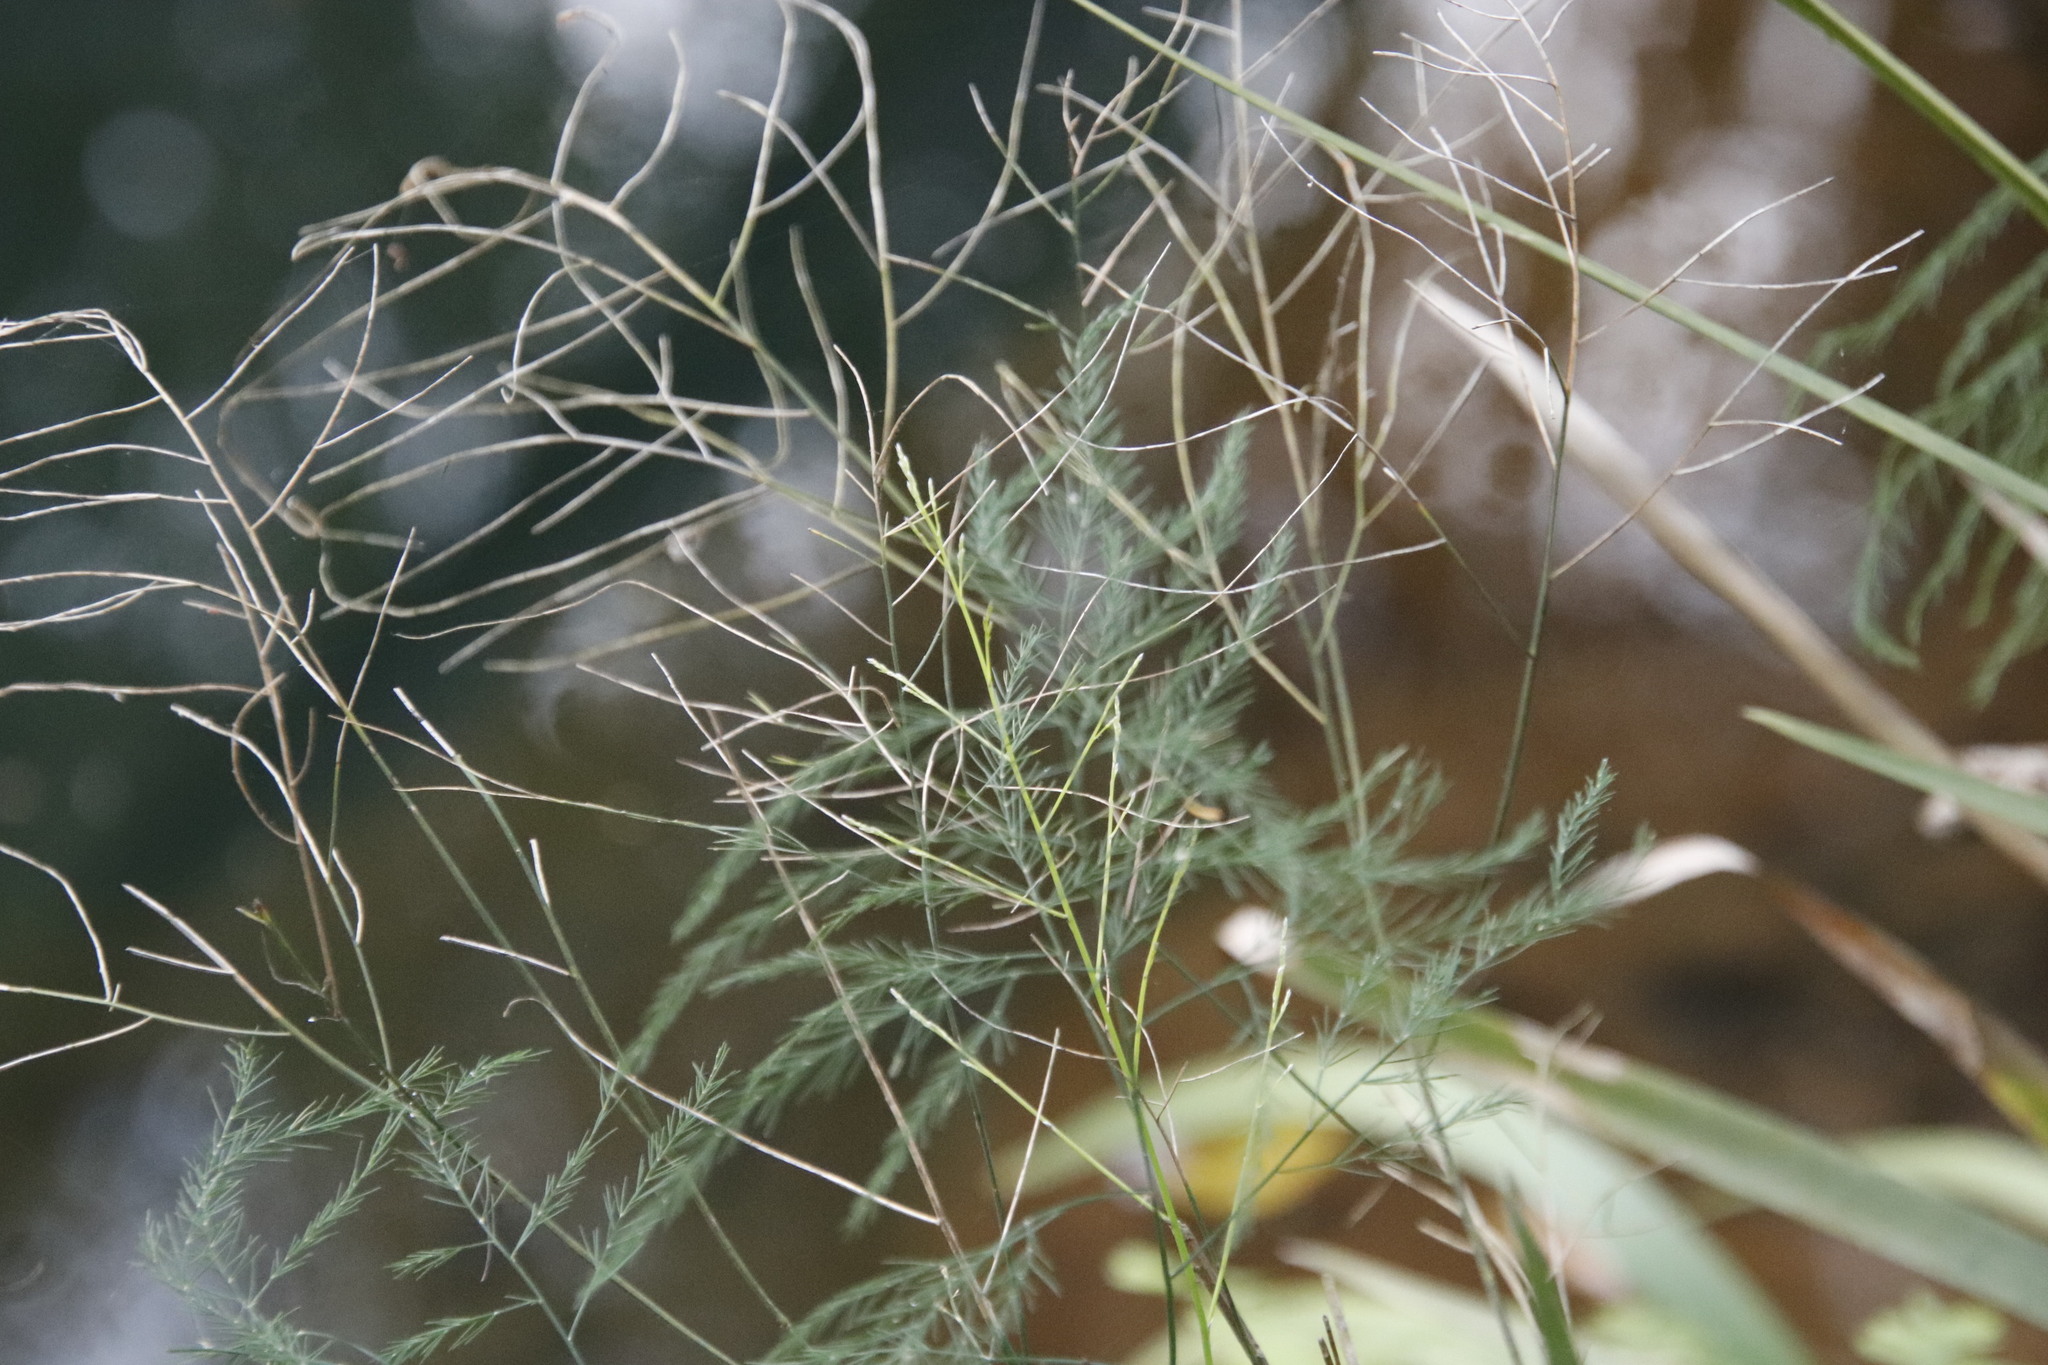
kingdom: Plantae
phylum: Tracheophyta
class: Liliopsida
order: Asparagales
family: Asparagaceae
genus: Asparagus
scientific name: Asparagus virgatus
